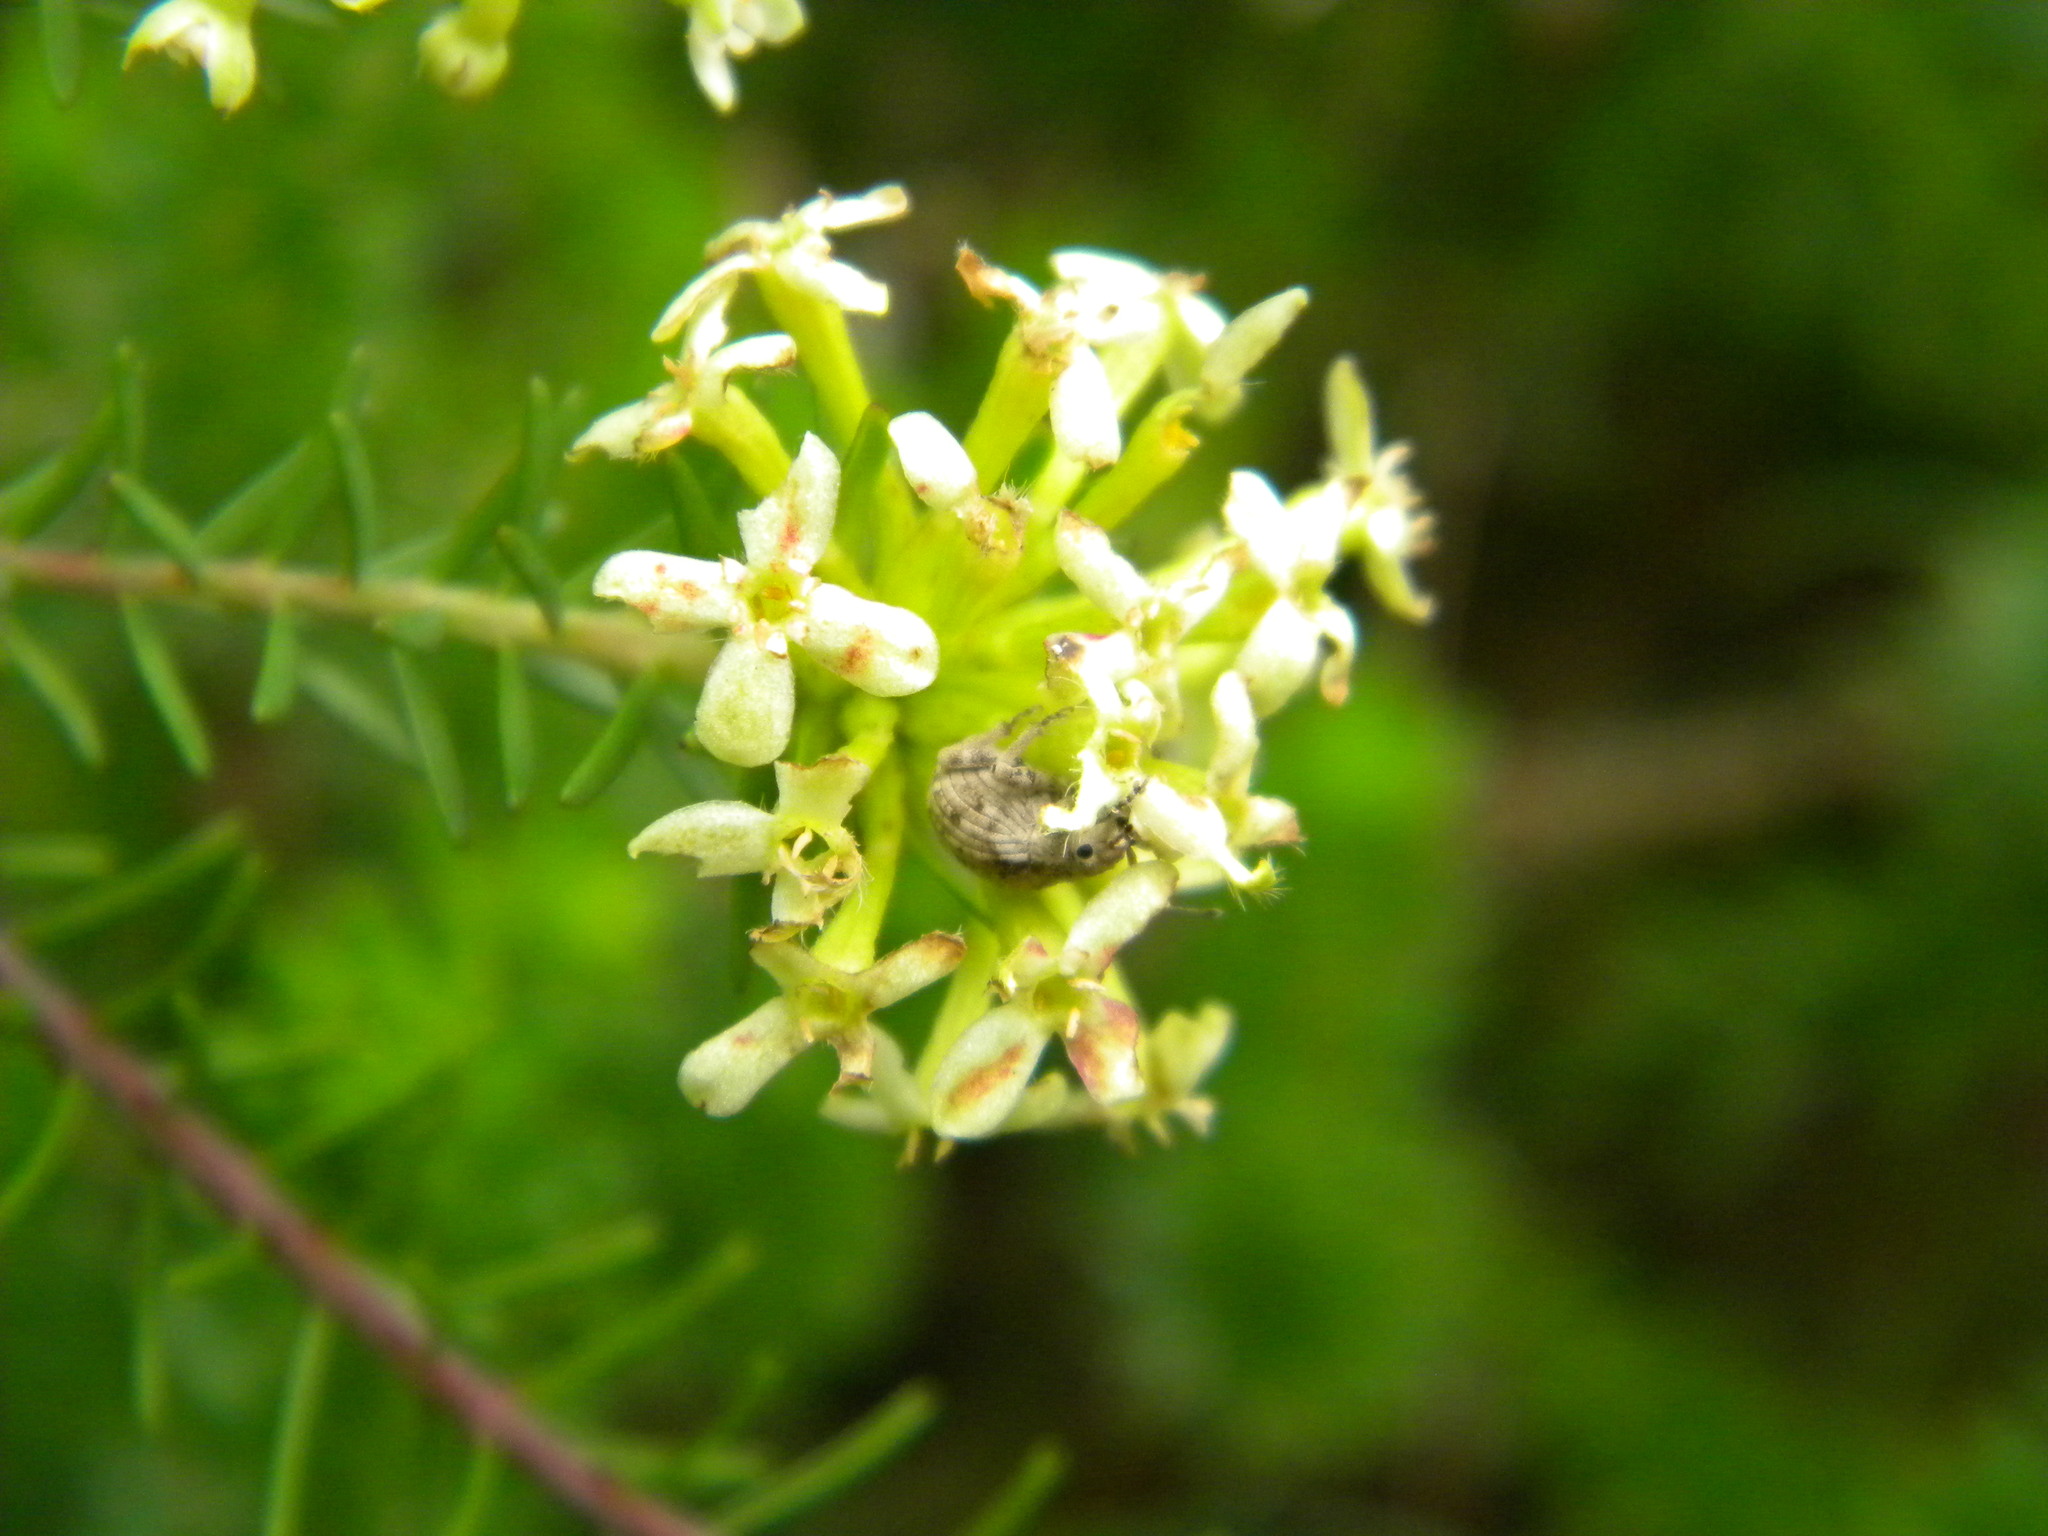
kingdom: Animalia
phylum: Arthropoda
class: Insecta
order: Coleoptera
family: Curculionidae
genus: Ellimenistes
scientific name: Ellimenistes laesicollis
